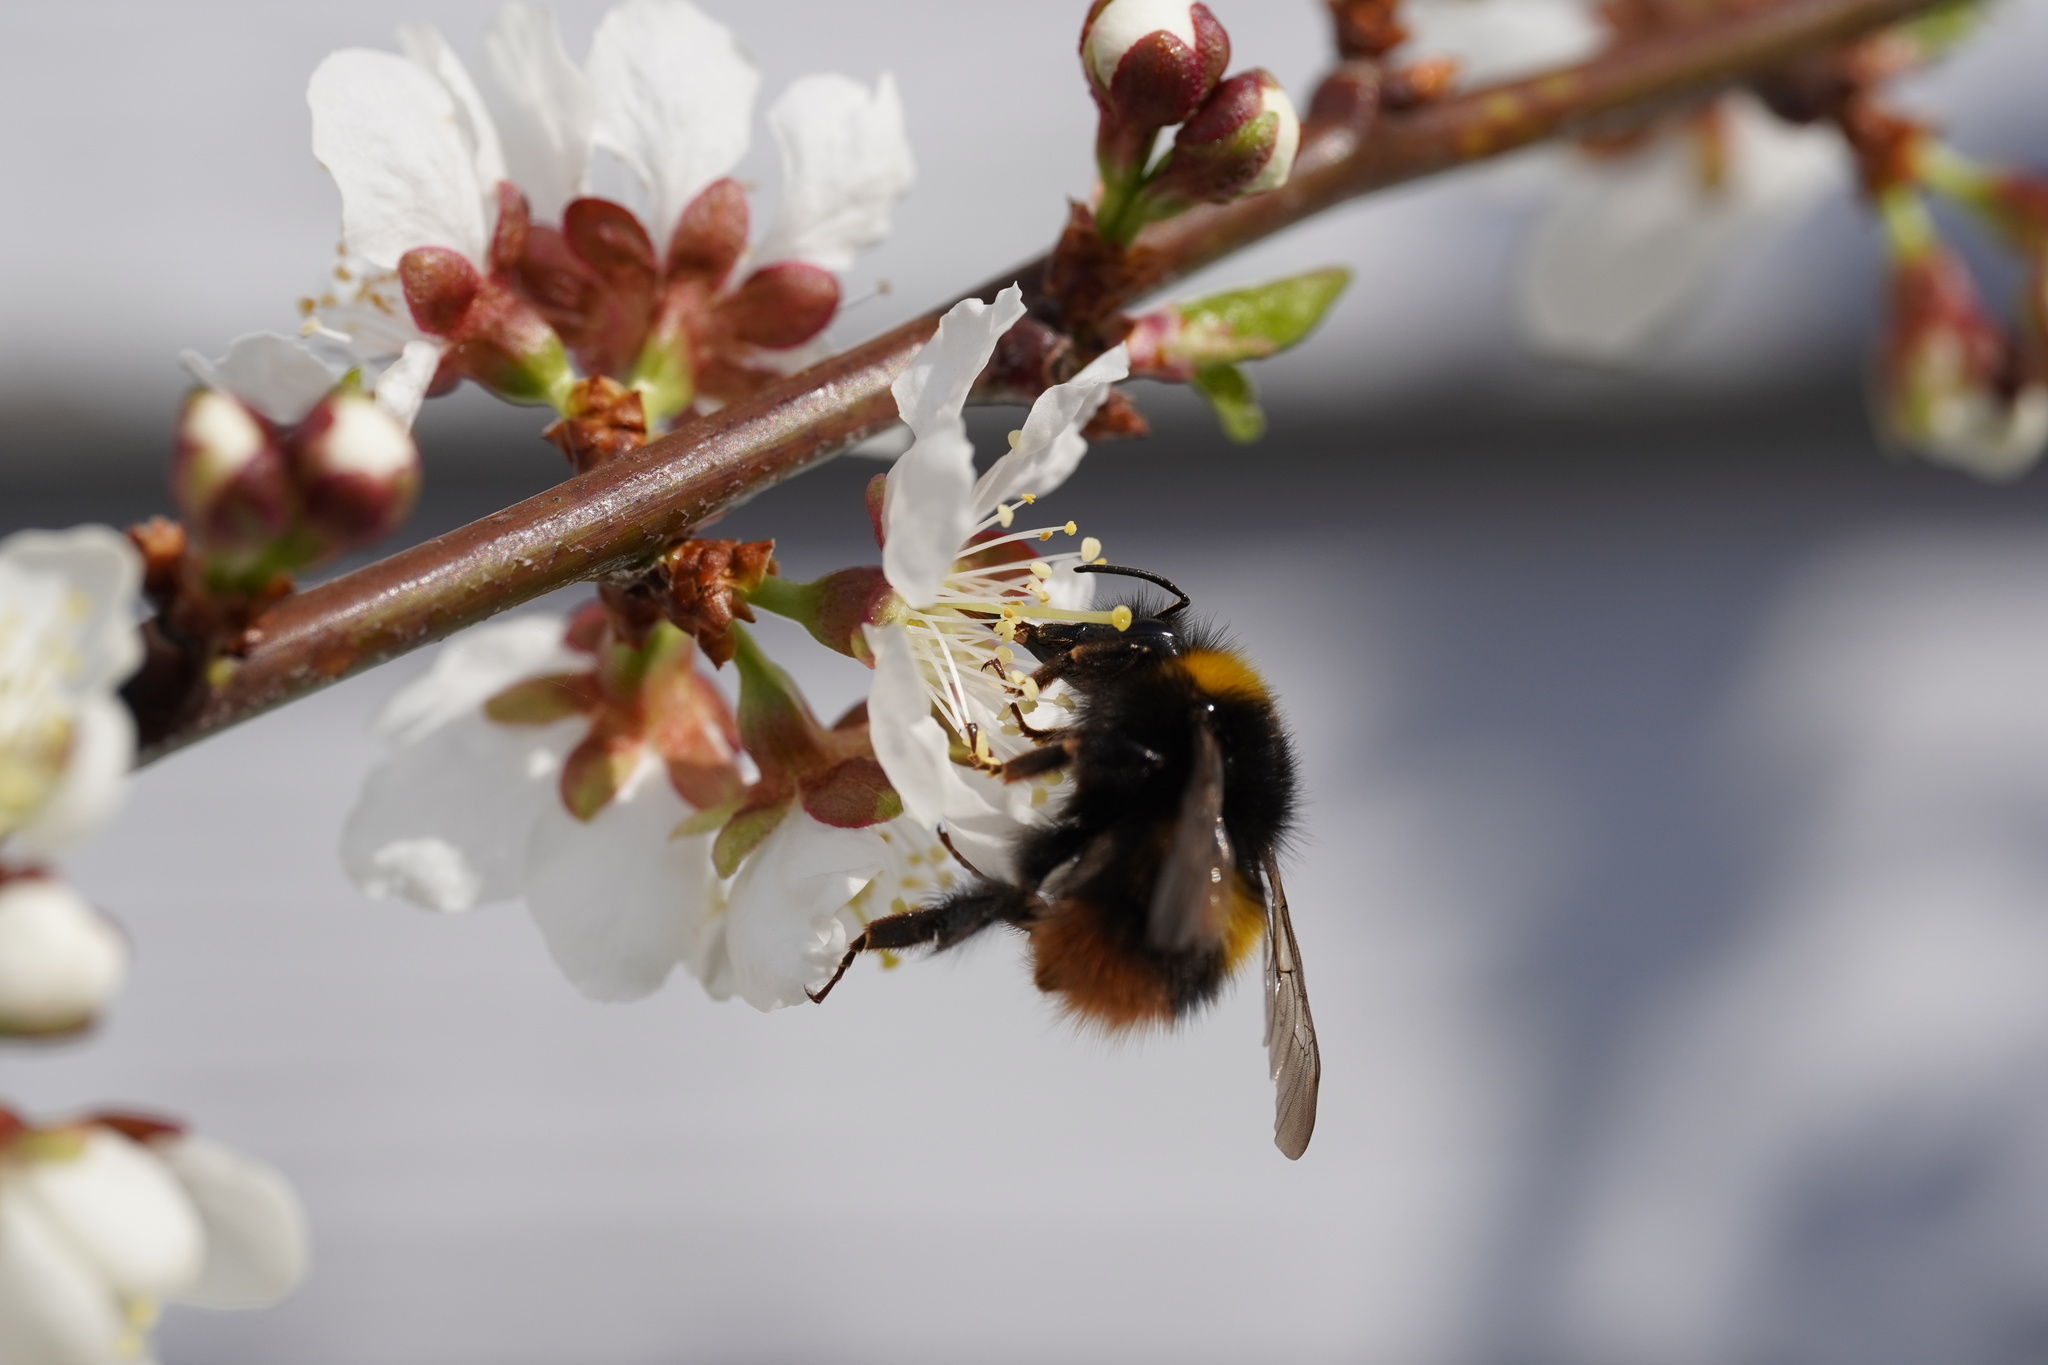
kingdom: Animalia
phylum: Arthropoda
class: Insecta
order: Hymenoptera
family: Apidae
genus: Bombus
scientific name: Bombus pratorum
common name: Early humble-bee
